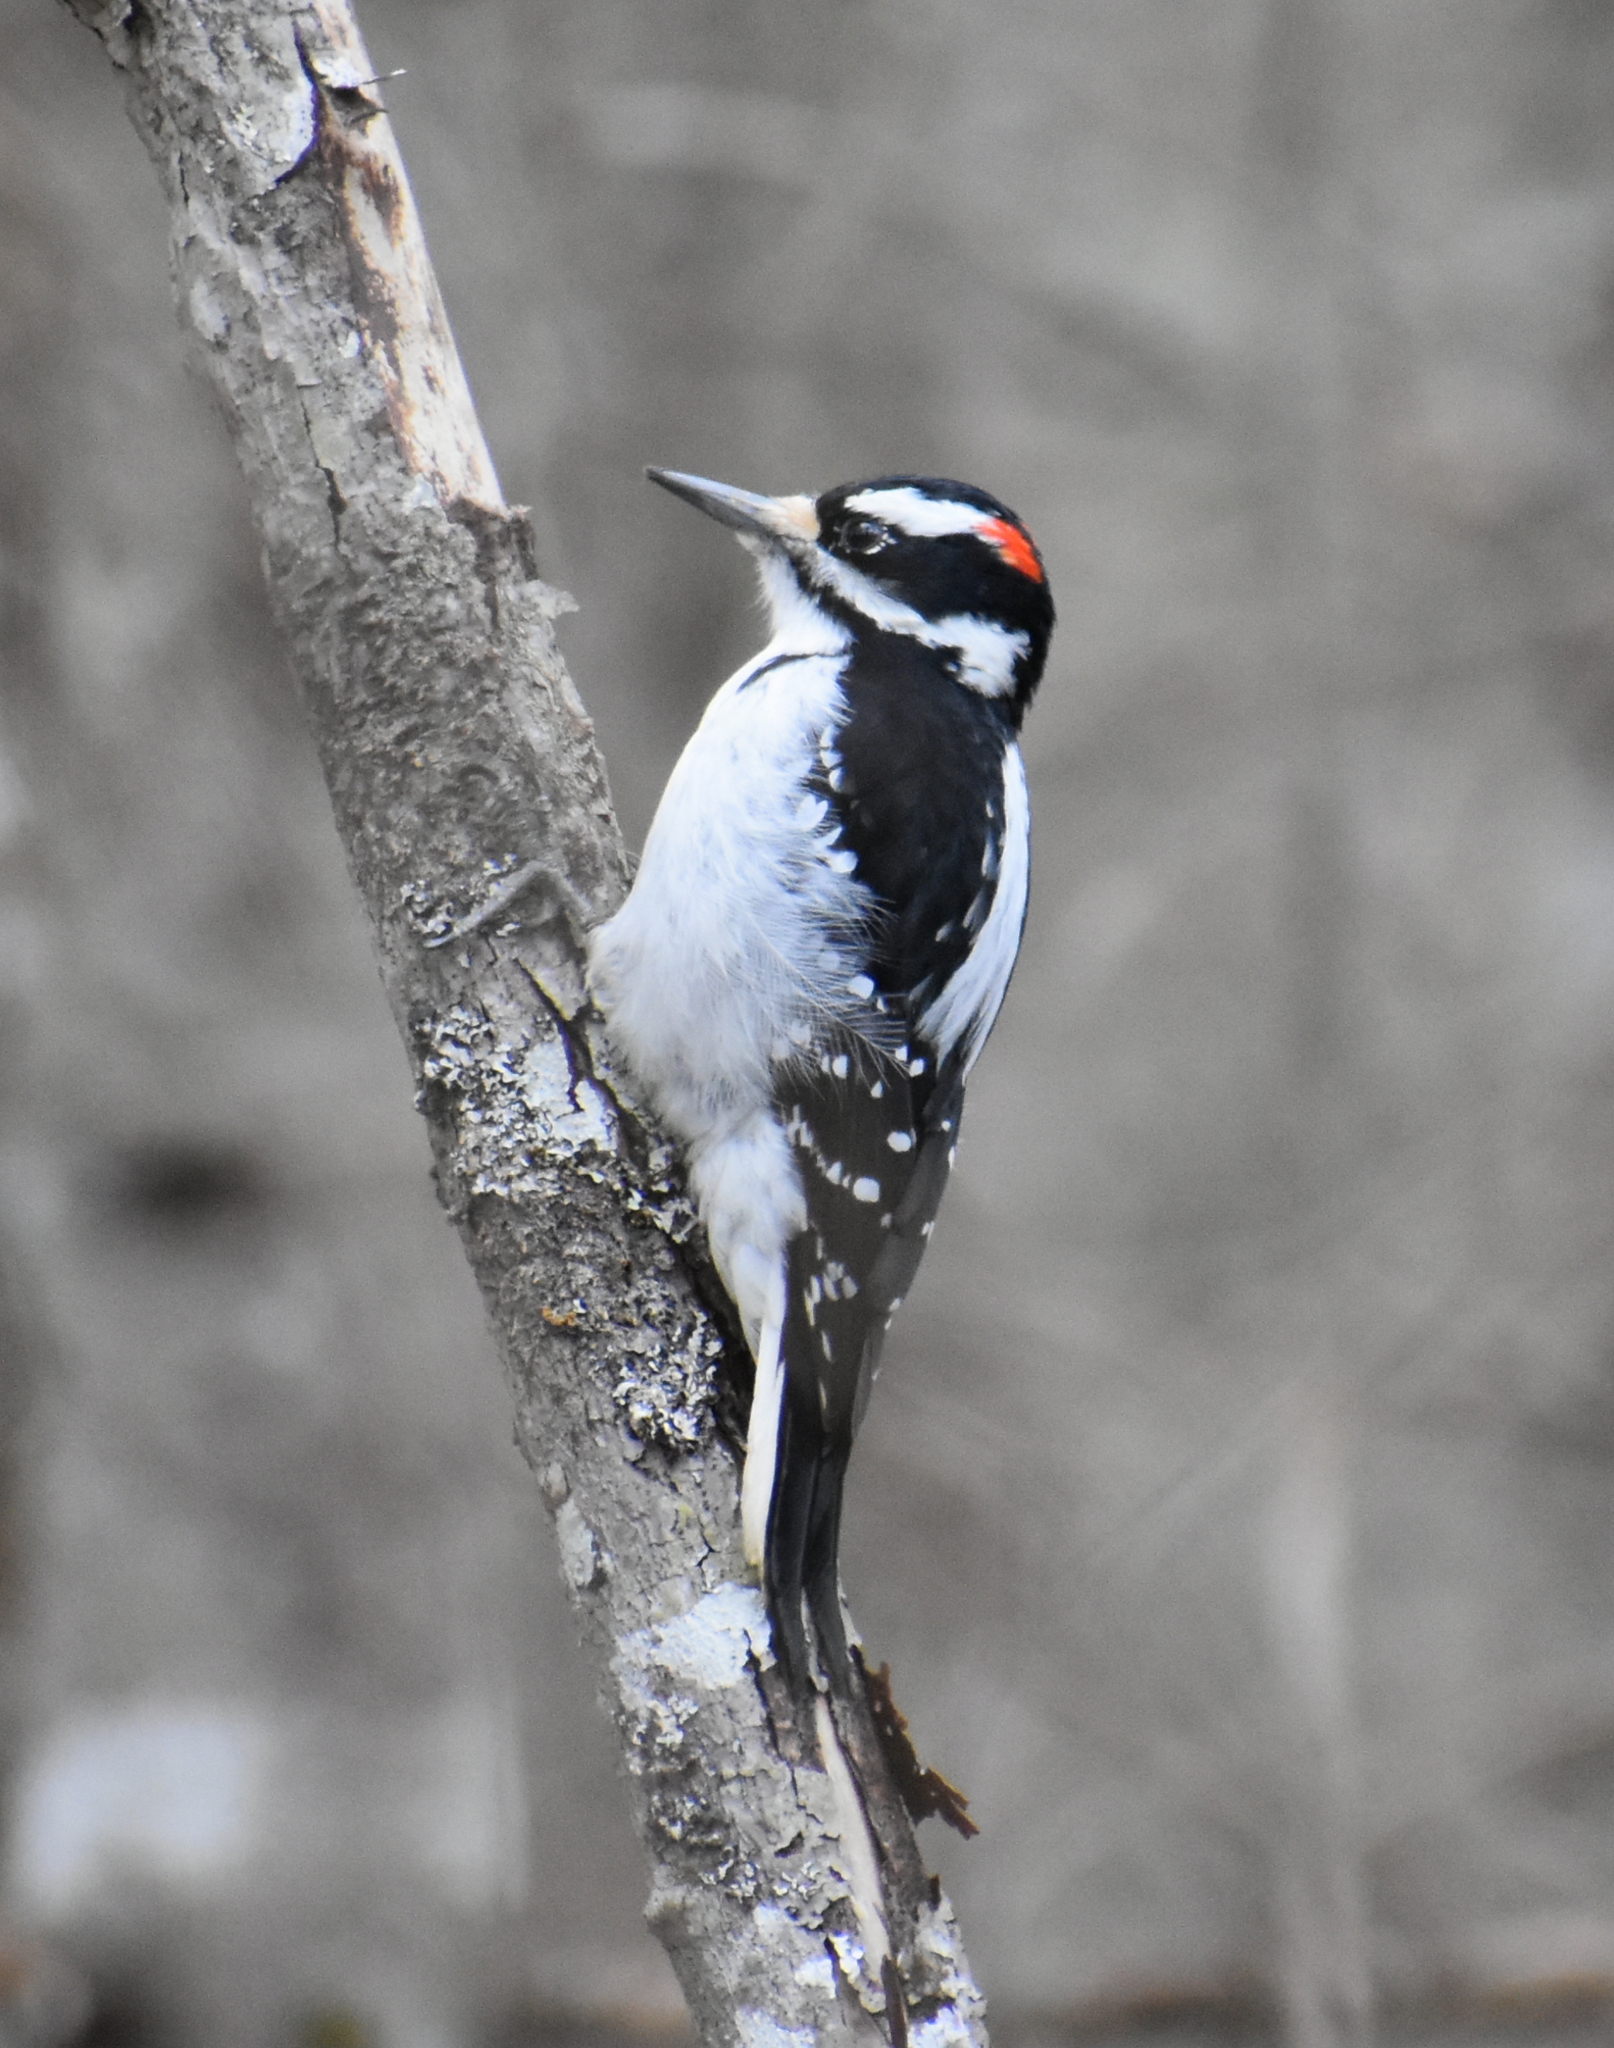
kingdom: Animalia
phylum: Chordata
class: Aves
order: Piciformes
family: Picidae
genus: Leuconotopicus
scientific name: Leuconotopicus villosus
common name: Hairy woodpecker
